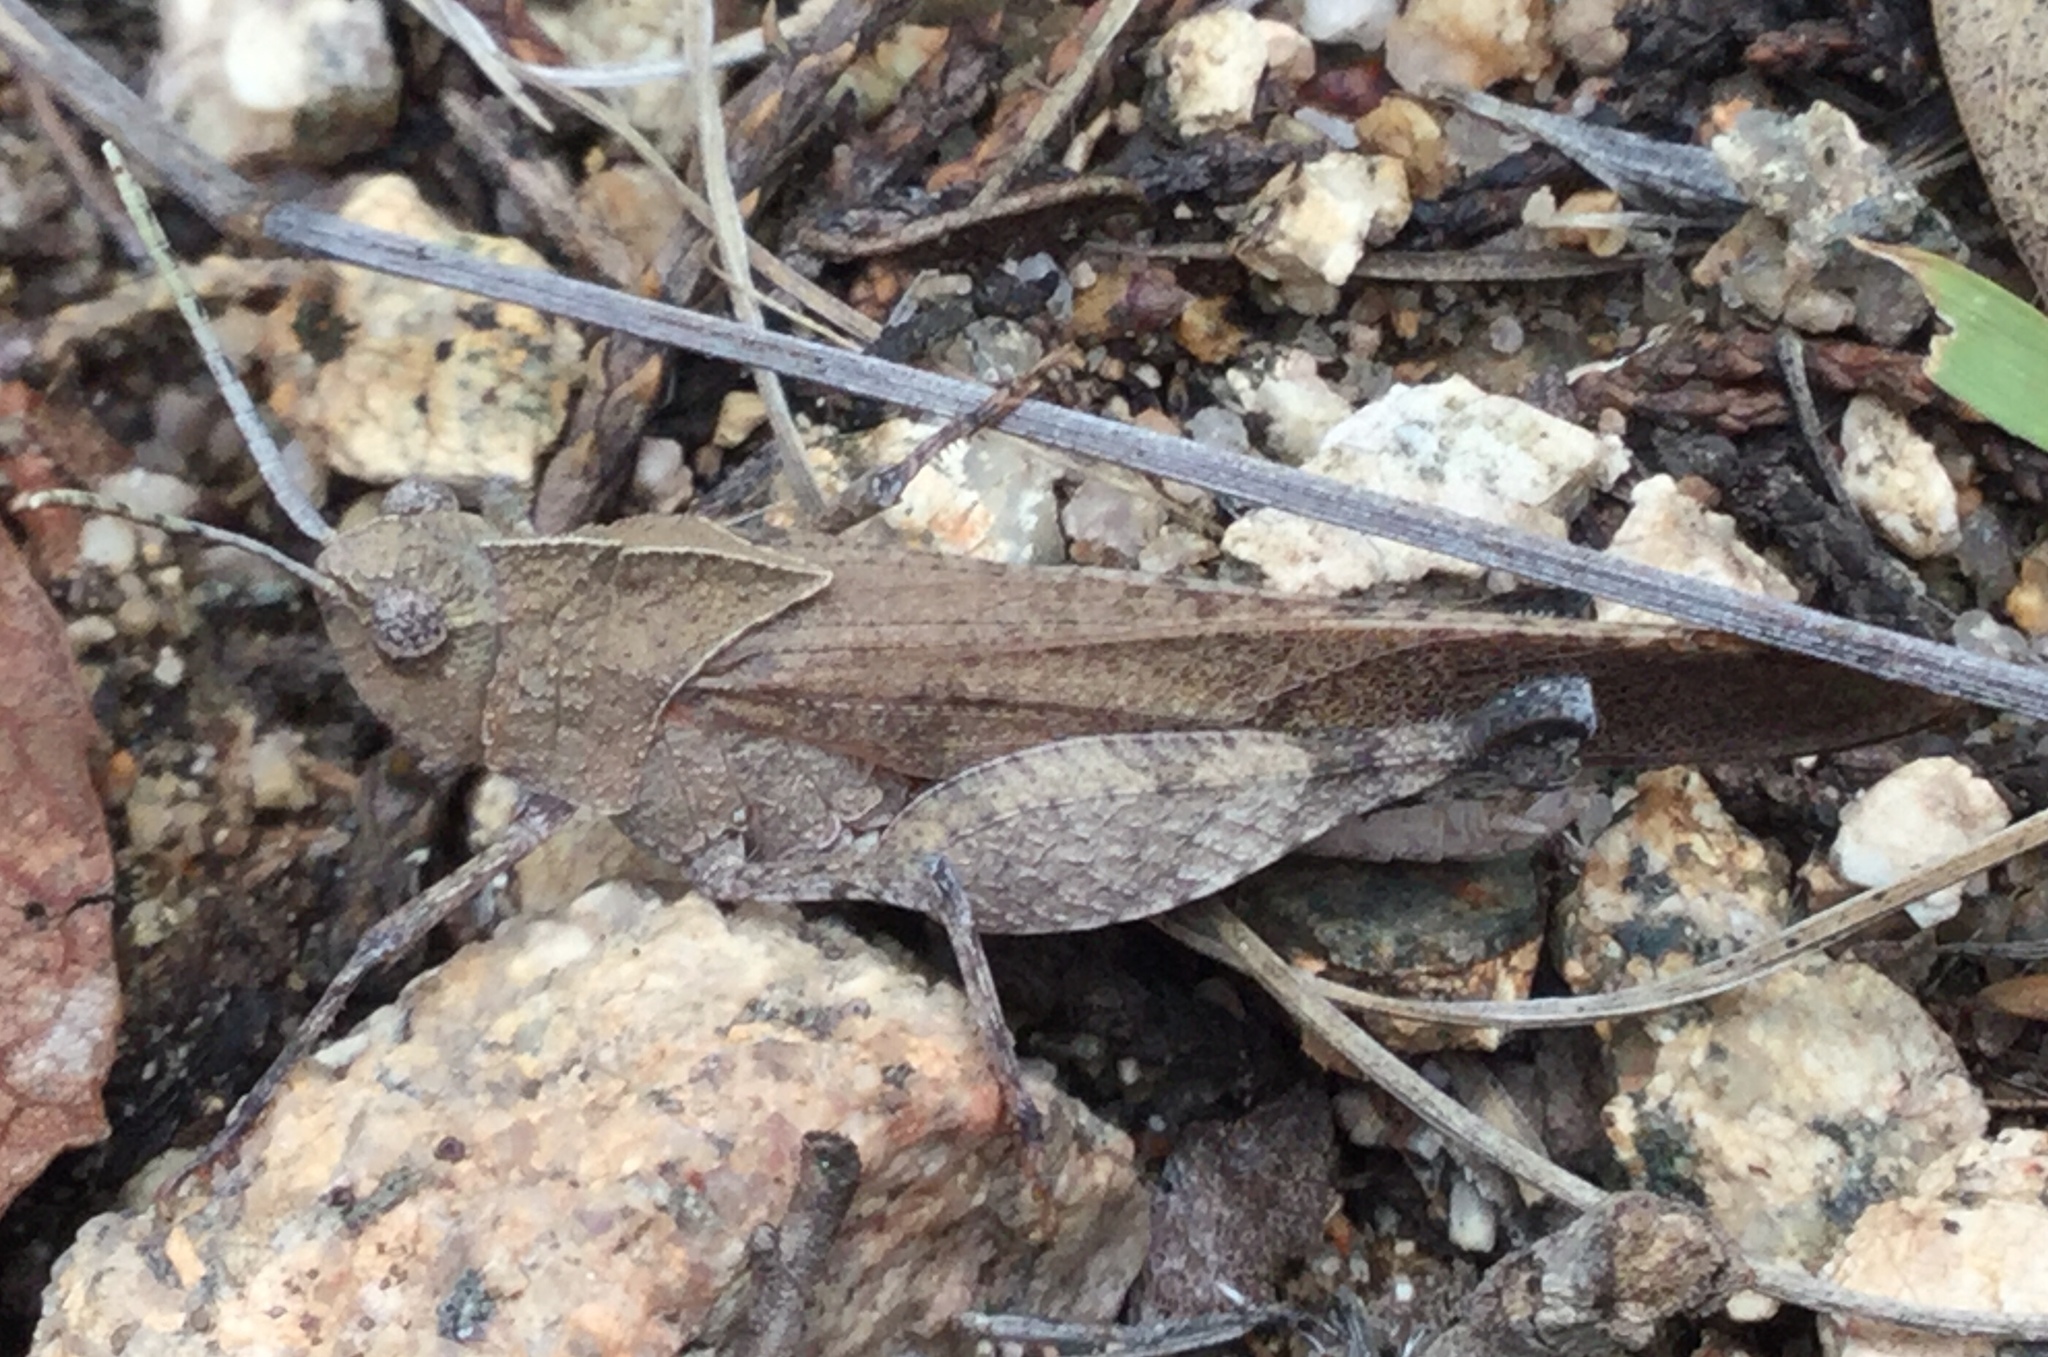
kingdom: Animalia
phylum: Arthropoda
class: Insecta
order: Orthoptera
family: Acrididae
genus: Tomonotus
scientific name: Tomonotus ferruginosus
